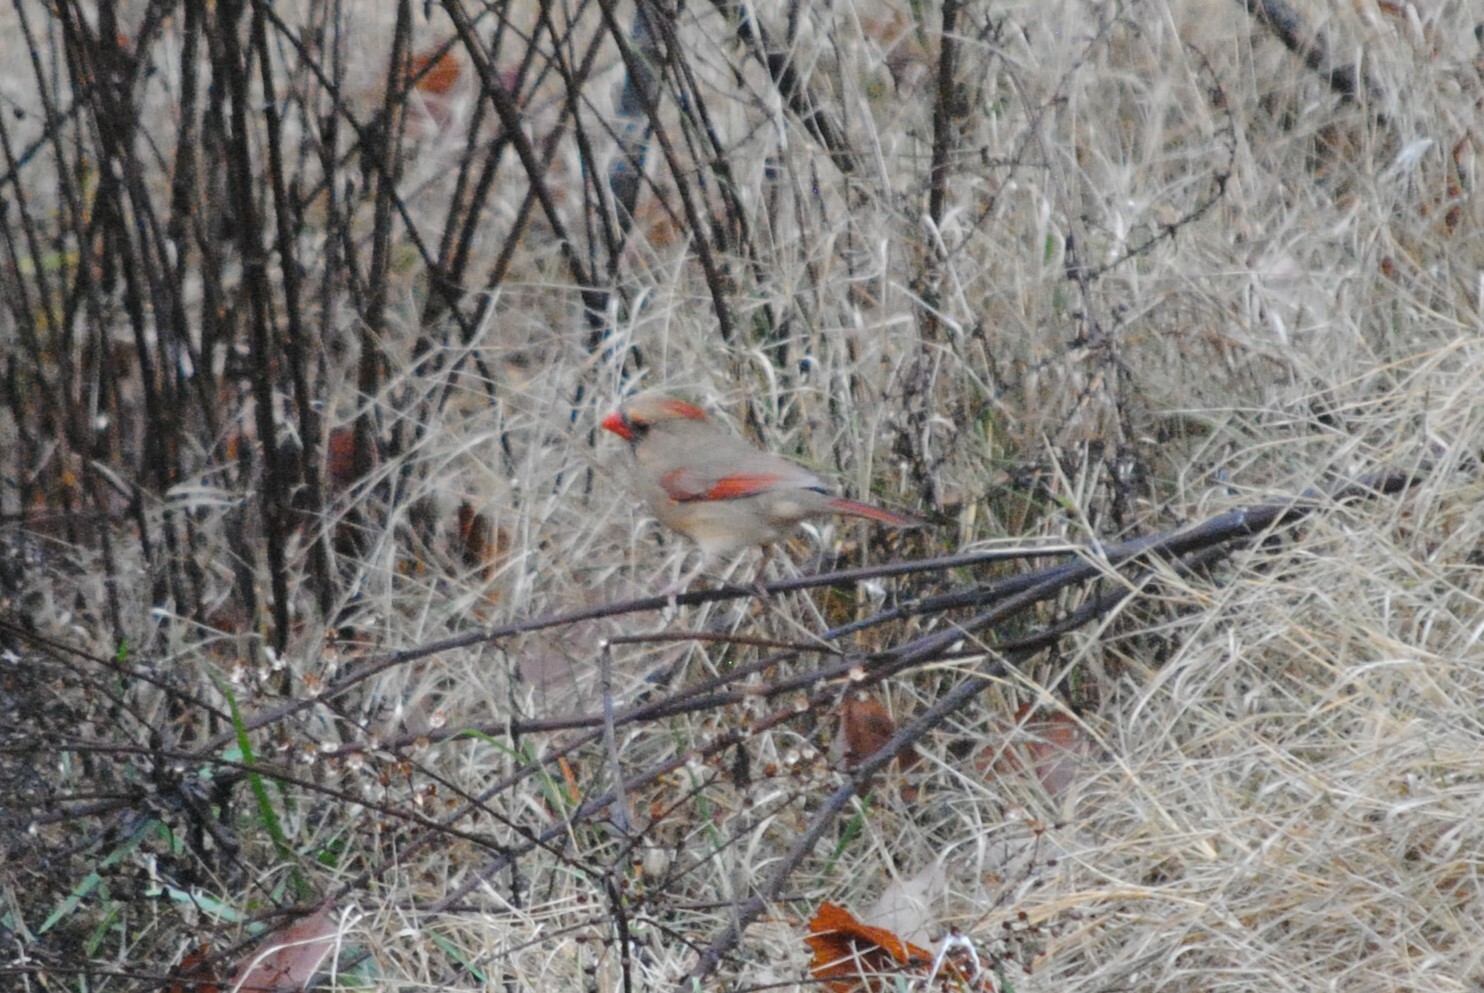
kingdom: Animalia
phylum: Chordata
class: Aves
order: Passeriformes
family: Cardinalidae
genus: Cardinalis
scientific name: Cardinalis cardinalis
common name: Northern cardinal
